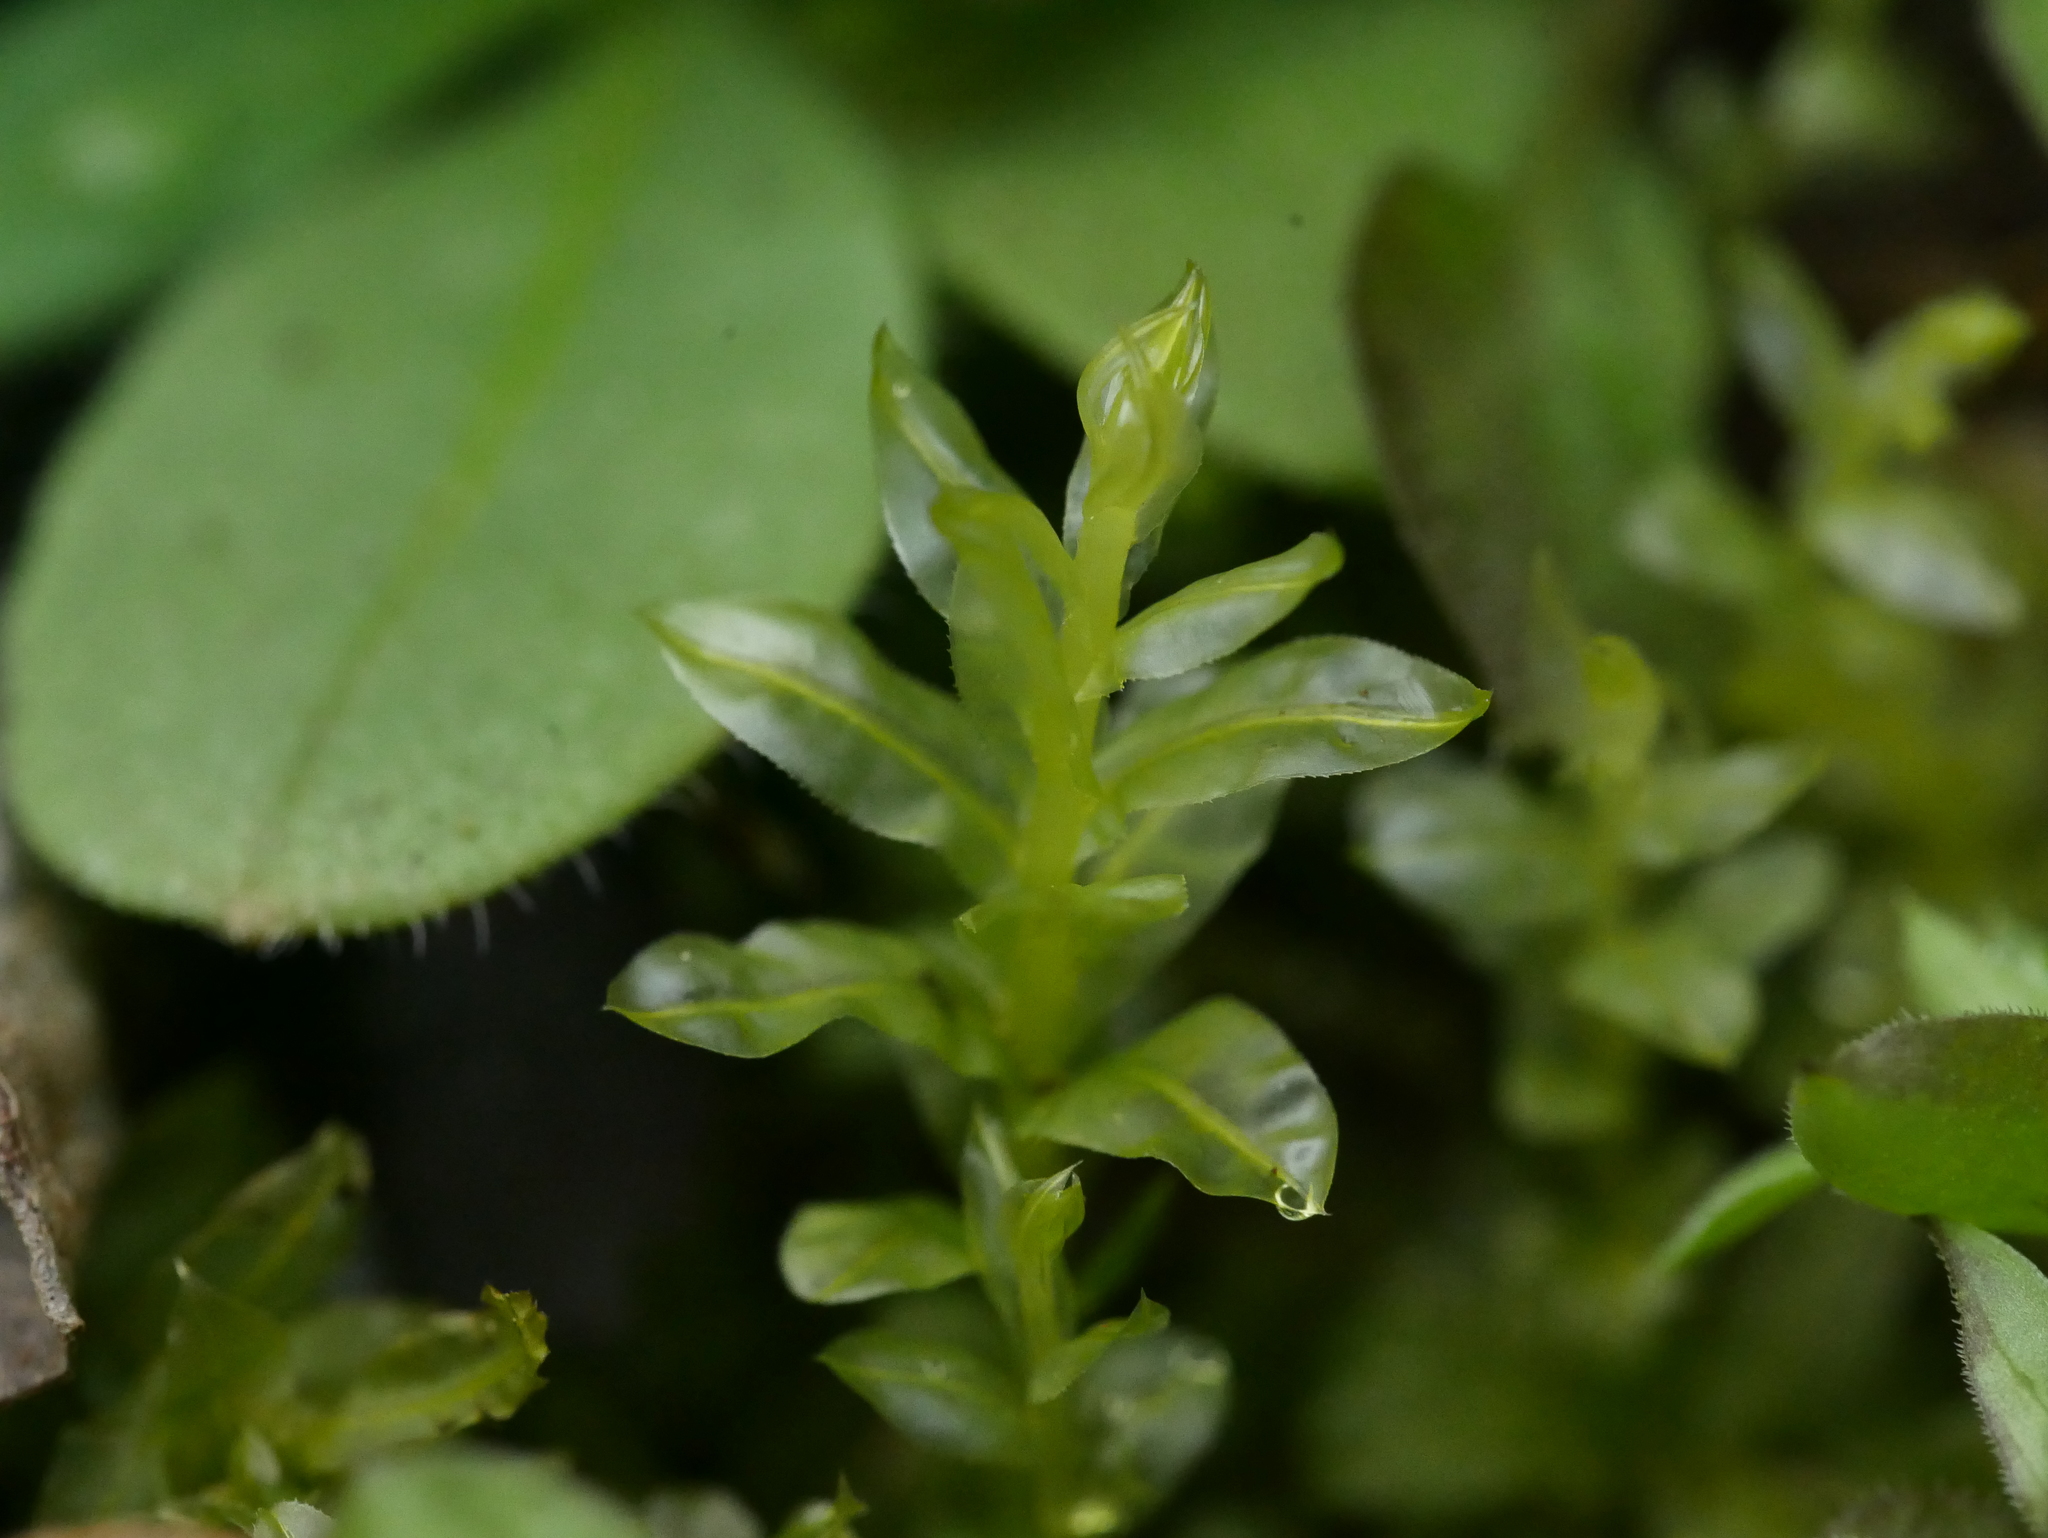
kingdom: Plantae
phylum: Bryophyta
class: Bryopsida
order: Bryales
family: Mniaceae
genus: Plagiomnium
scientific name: Plagiomnium undulatum
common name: Hart's-tongue thyme-moss
